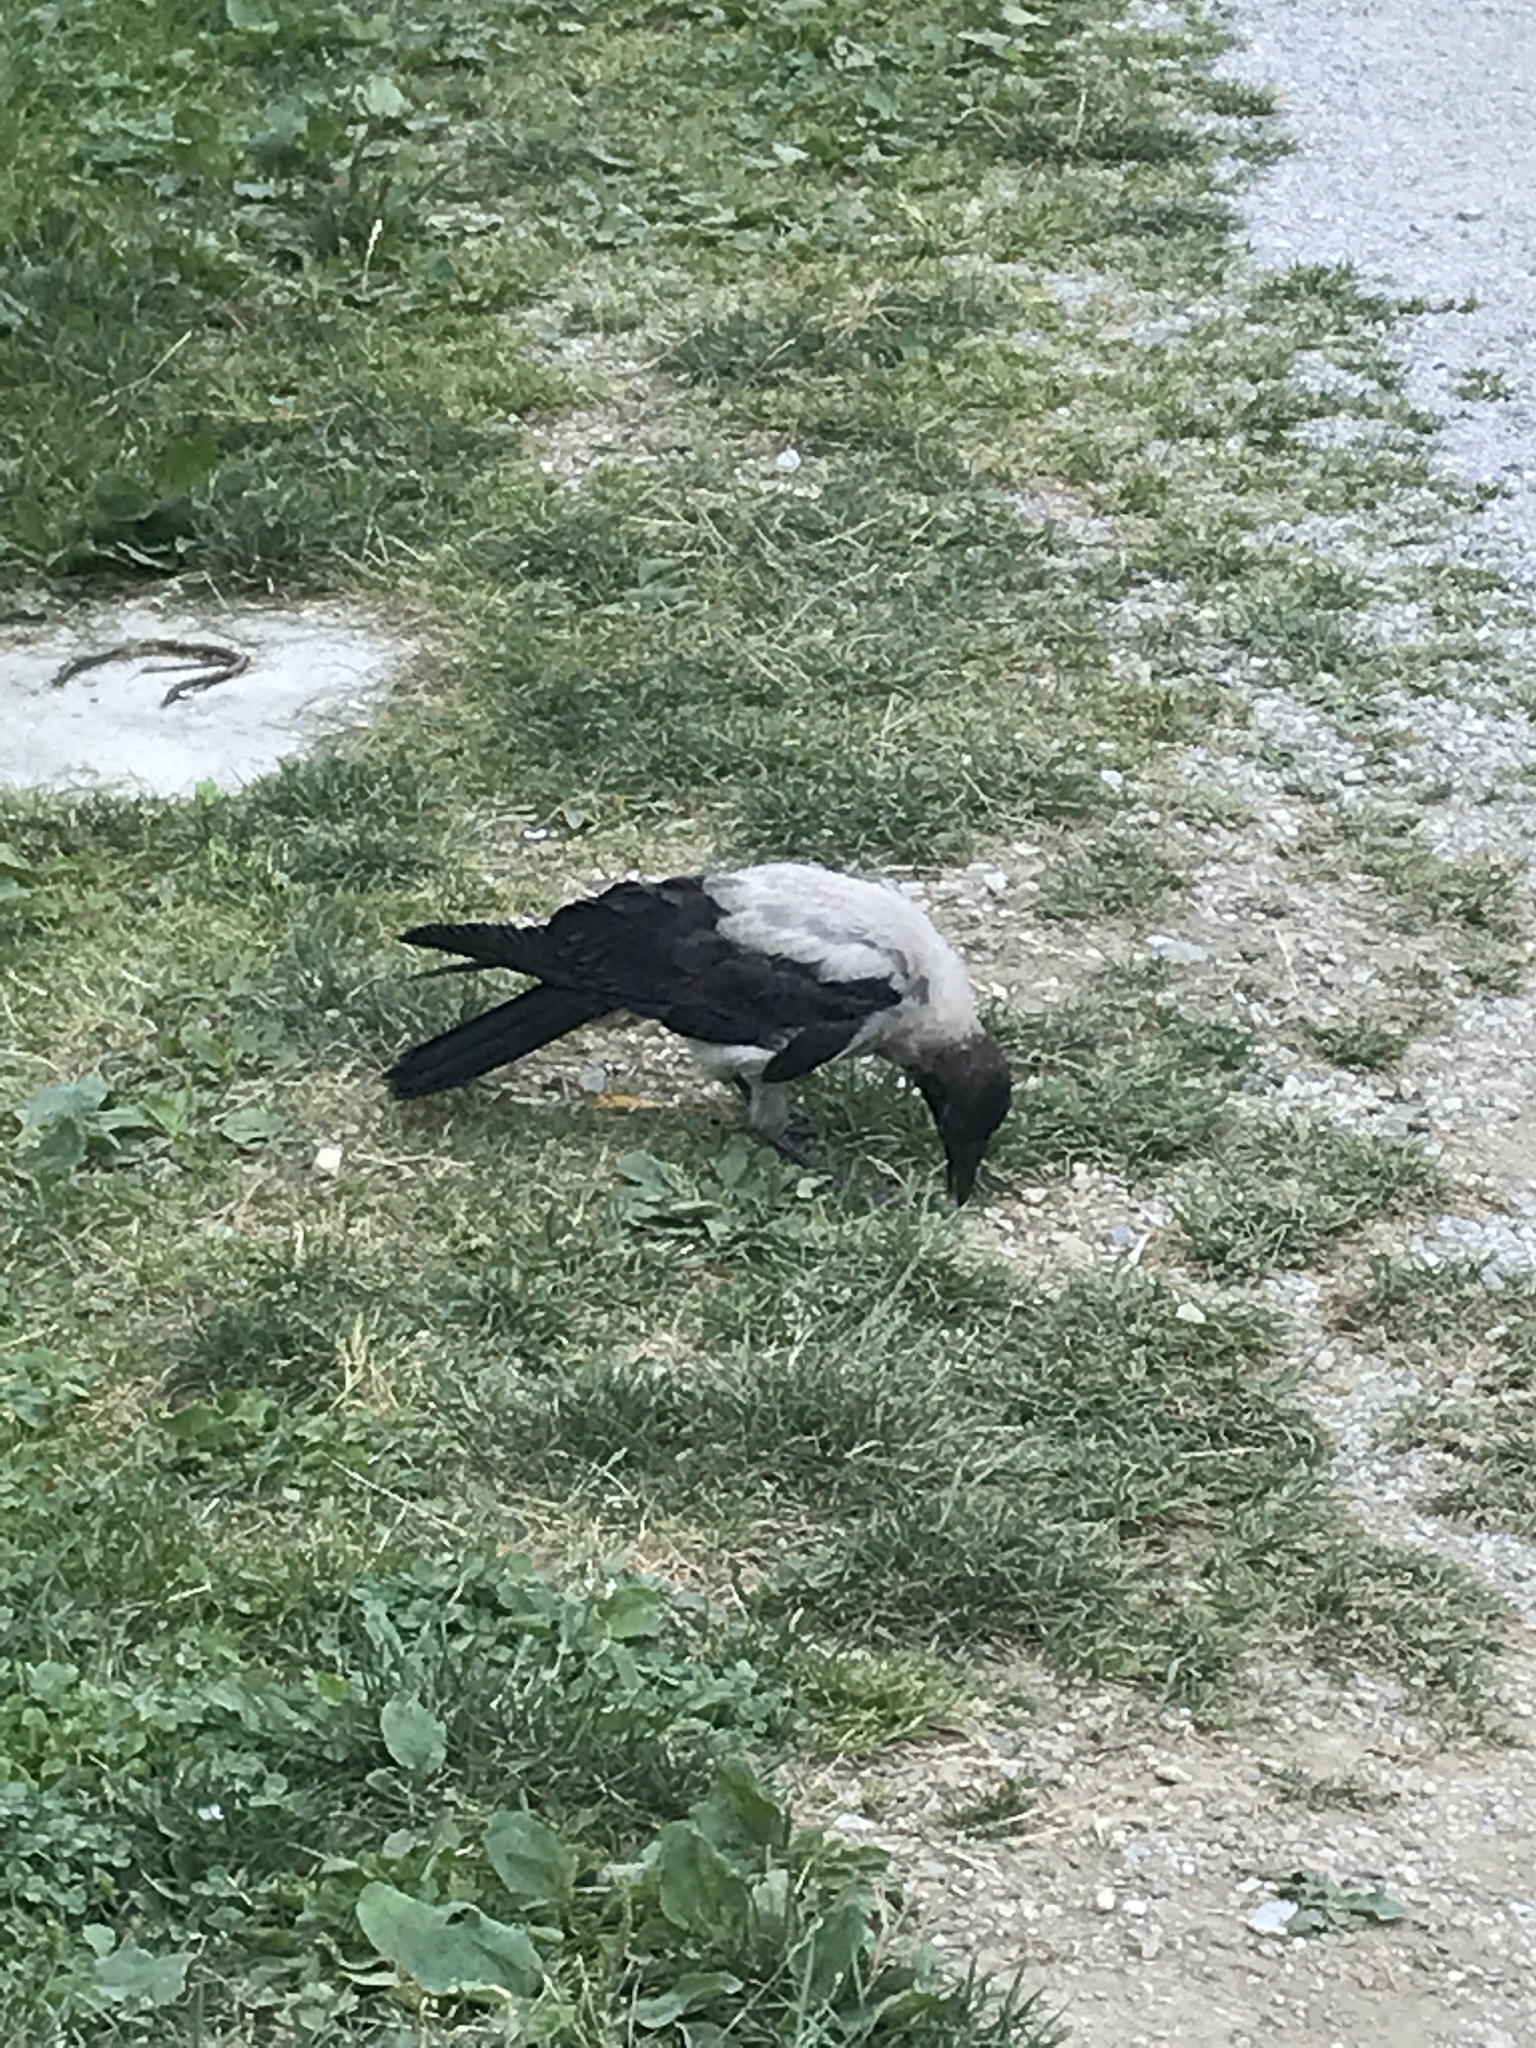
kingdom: Animalia
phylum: Chordata
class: Aves
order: Passeriformes
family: Corvidae
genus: Corvus
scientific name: Corvus cornix
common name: Hooded crow
